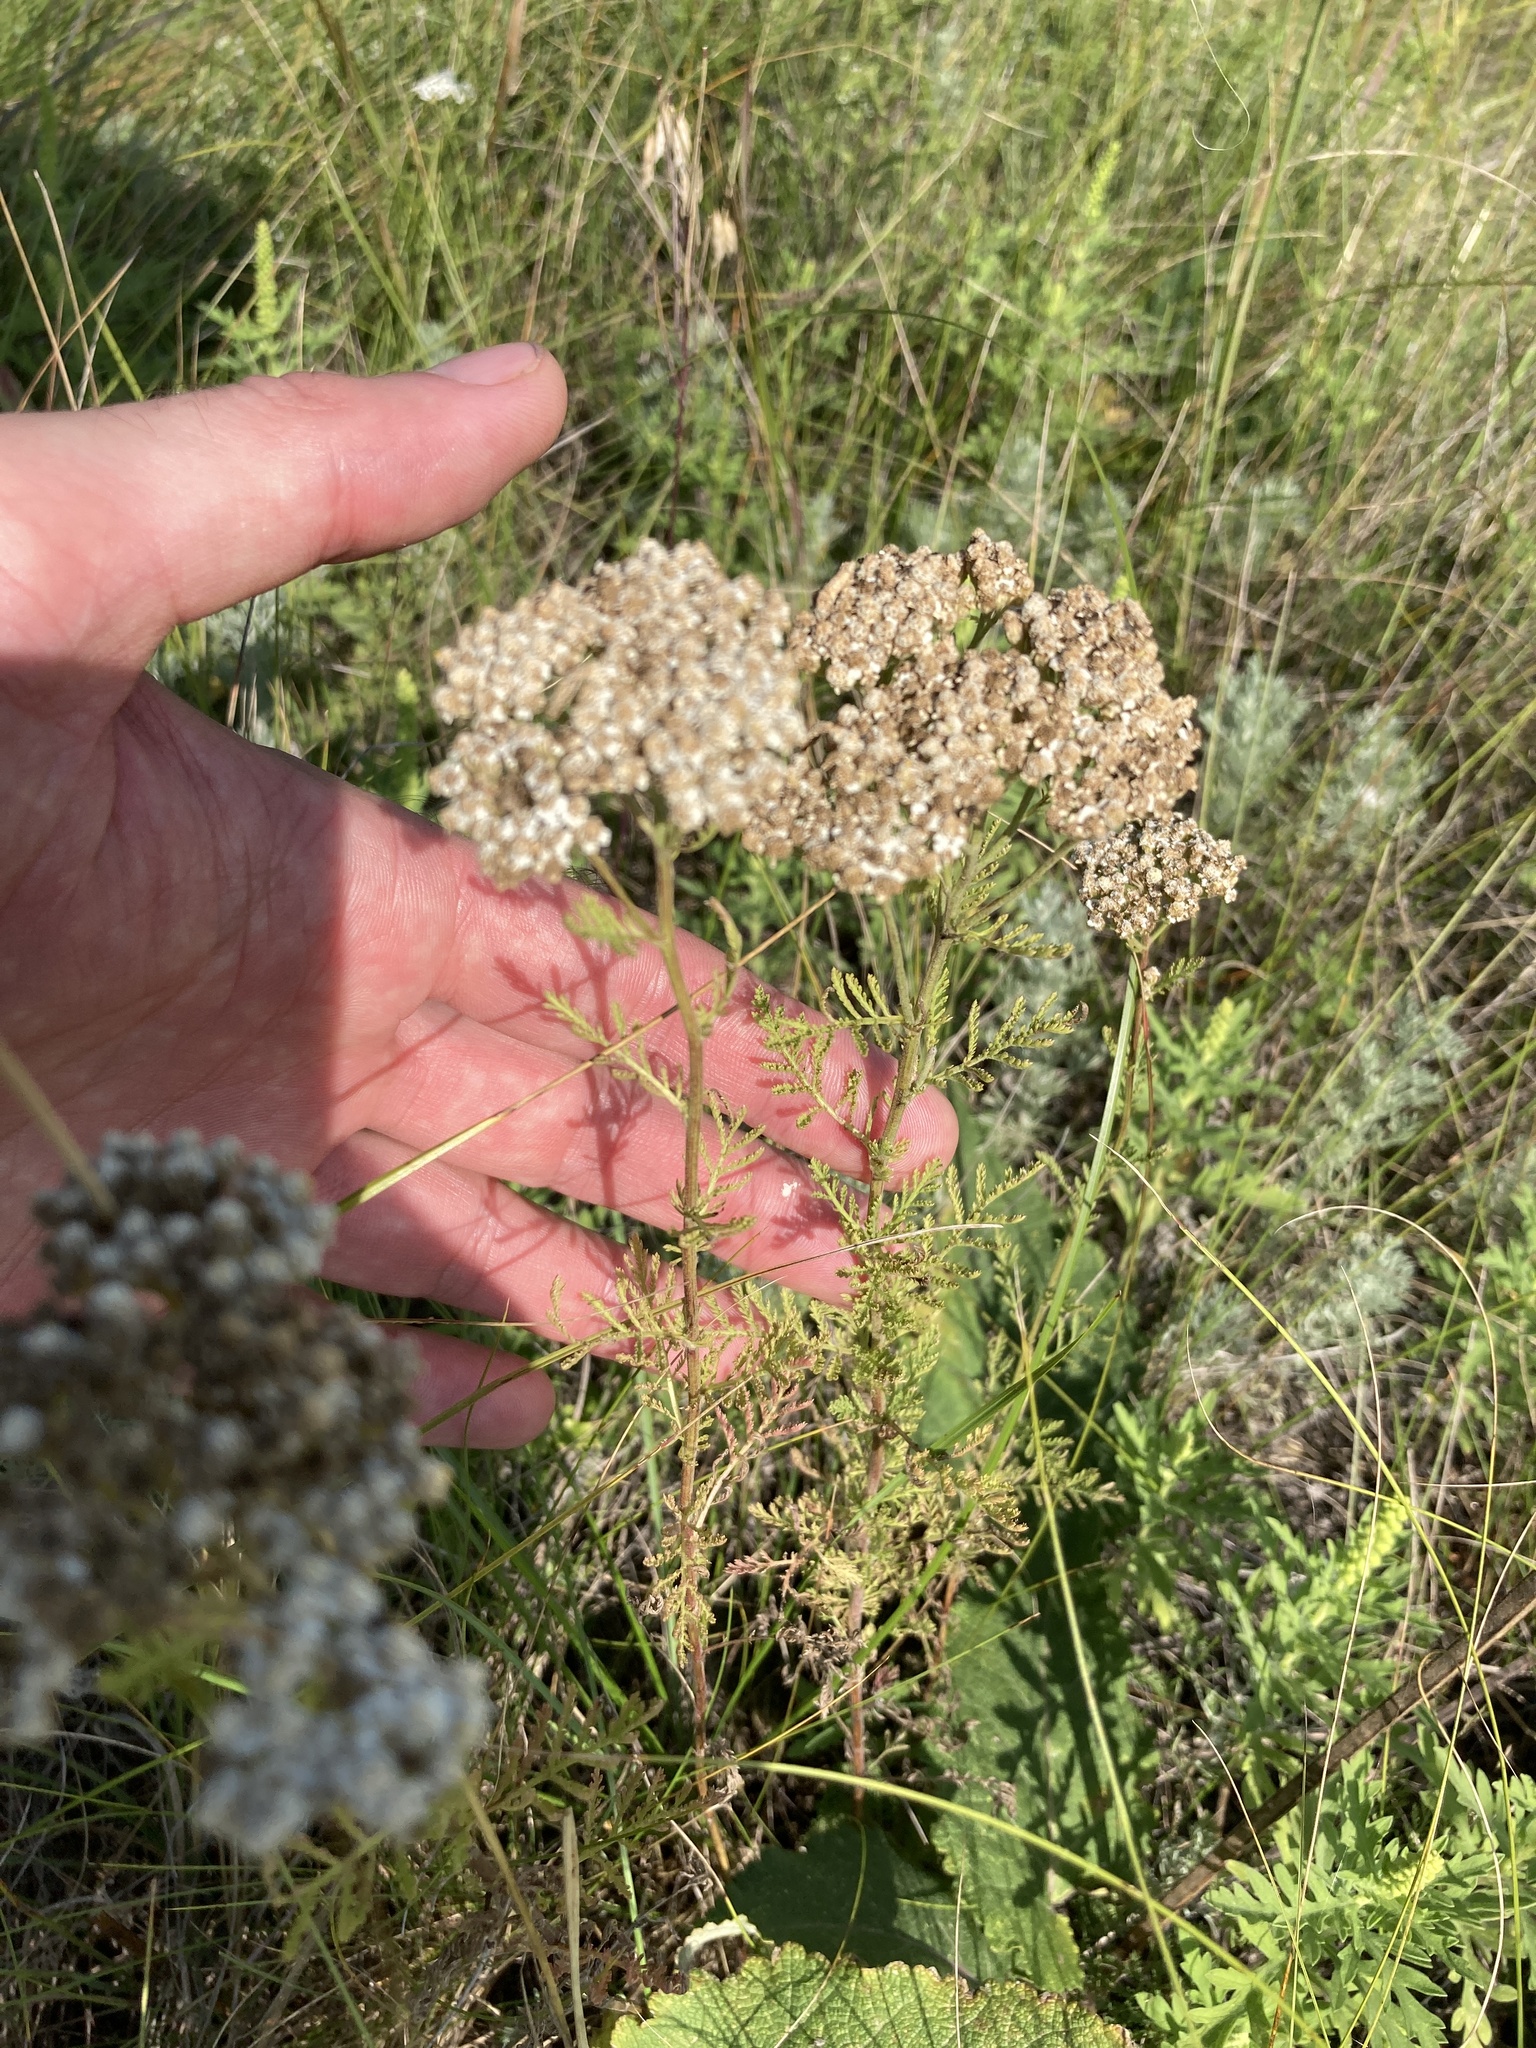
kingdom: Plantae
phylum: Tracheophyta
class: Magnoliopsida
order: Asterales
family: Asteraceae
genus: Achillea
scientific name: Achillea nobilis
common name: Noble yarrow
